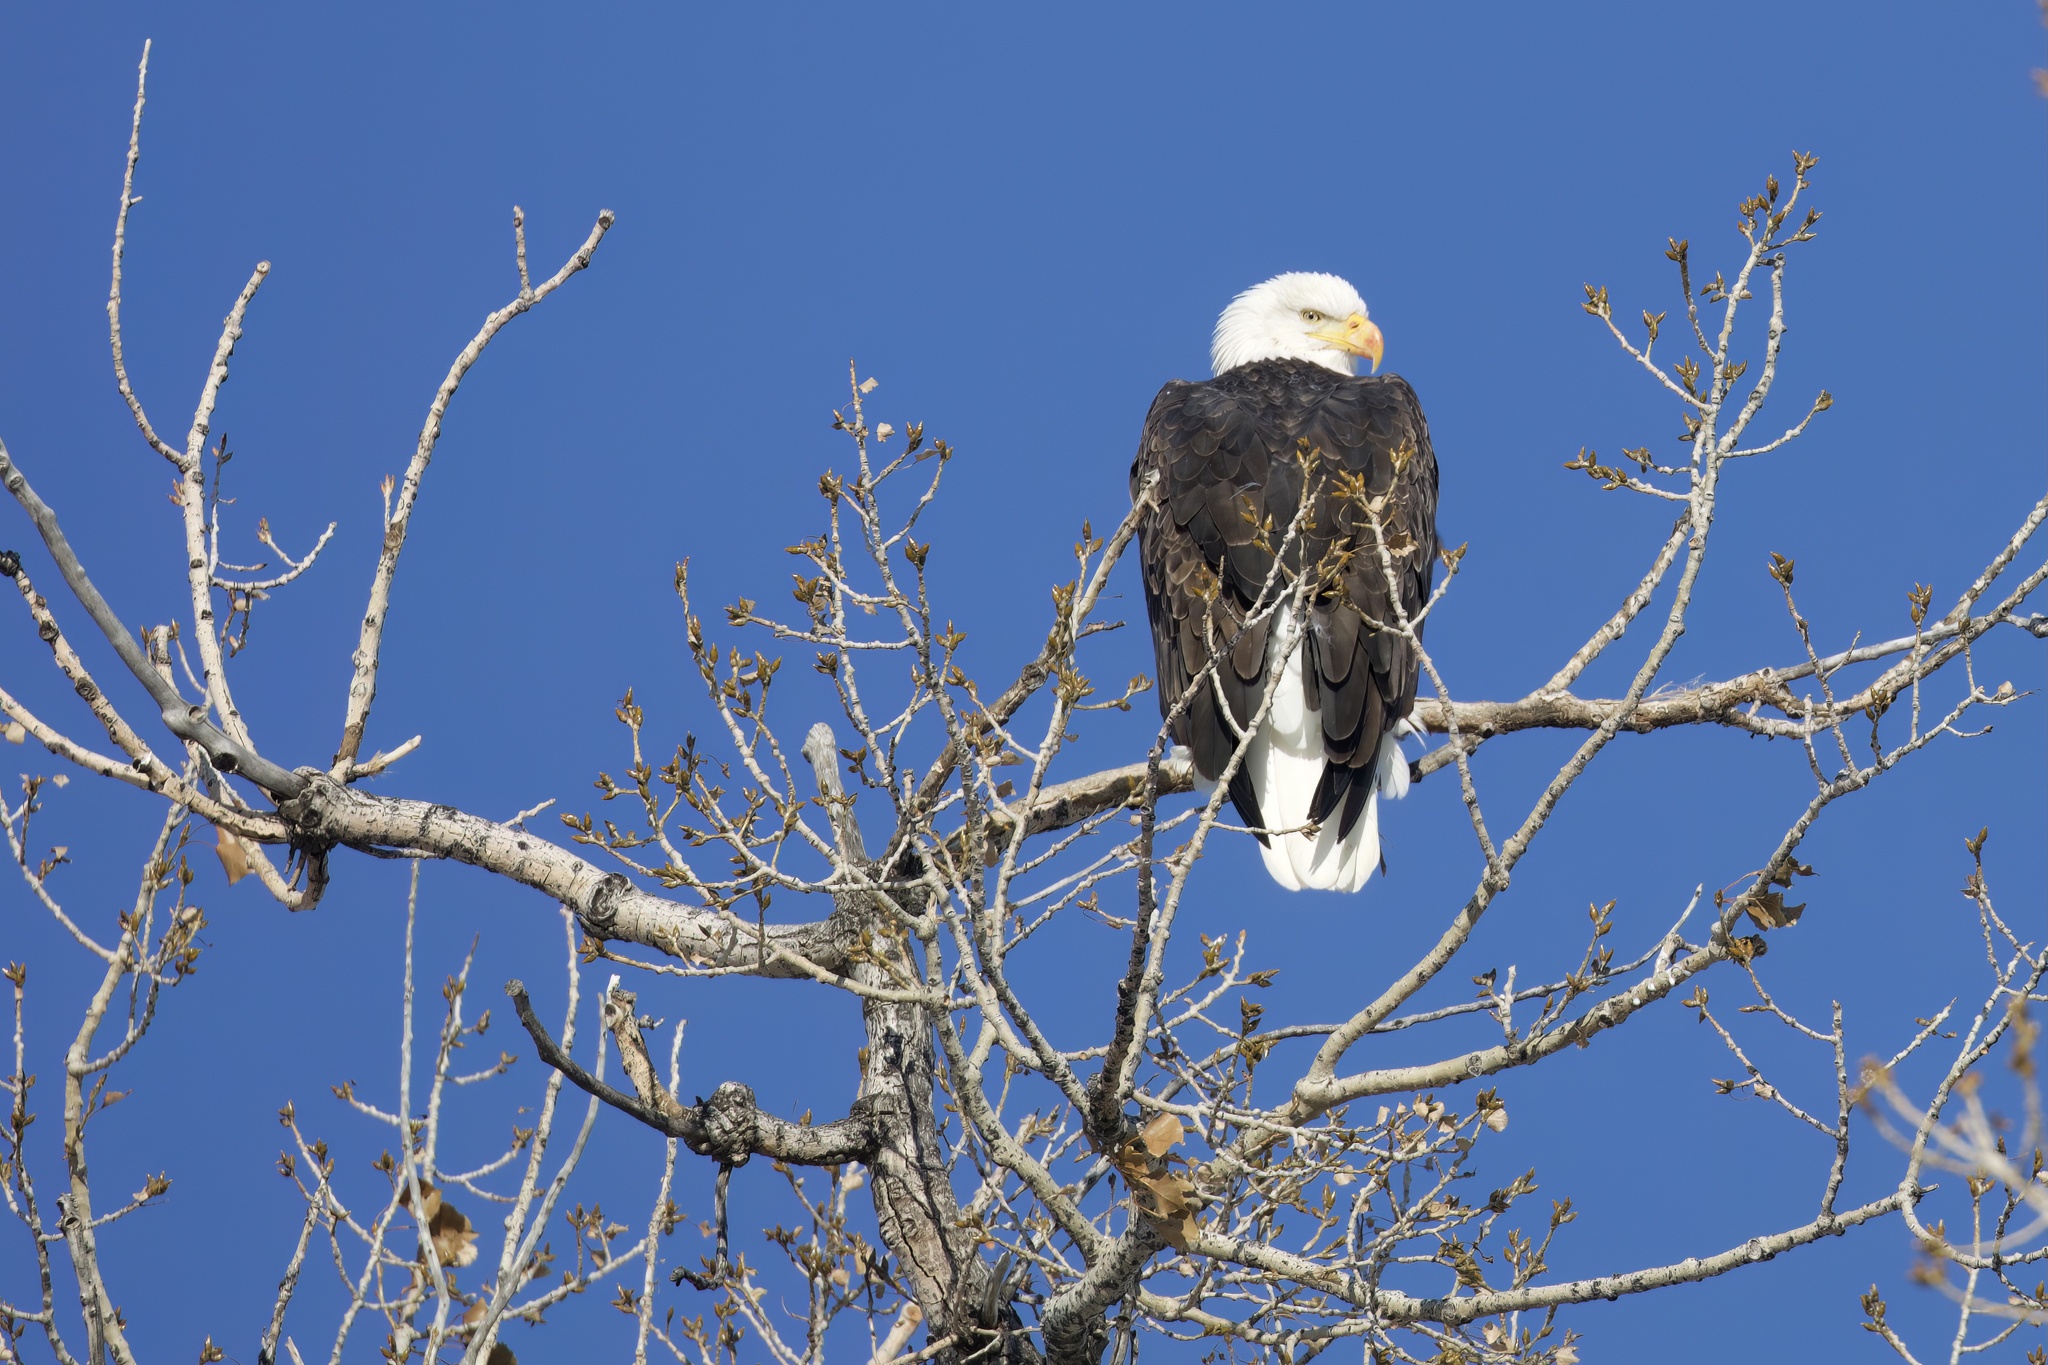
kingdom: Animalia
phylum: Chordata
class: Aves
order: Accipitriformes
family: Accipitridae
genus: Haliaeetus
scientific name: Haliaeetus leucocephalus
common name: Bald eagle
